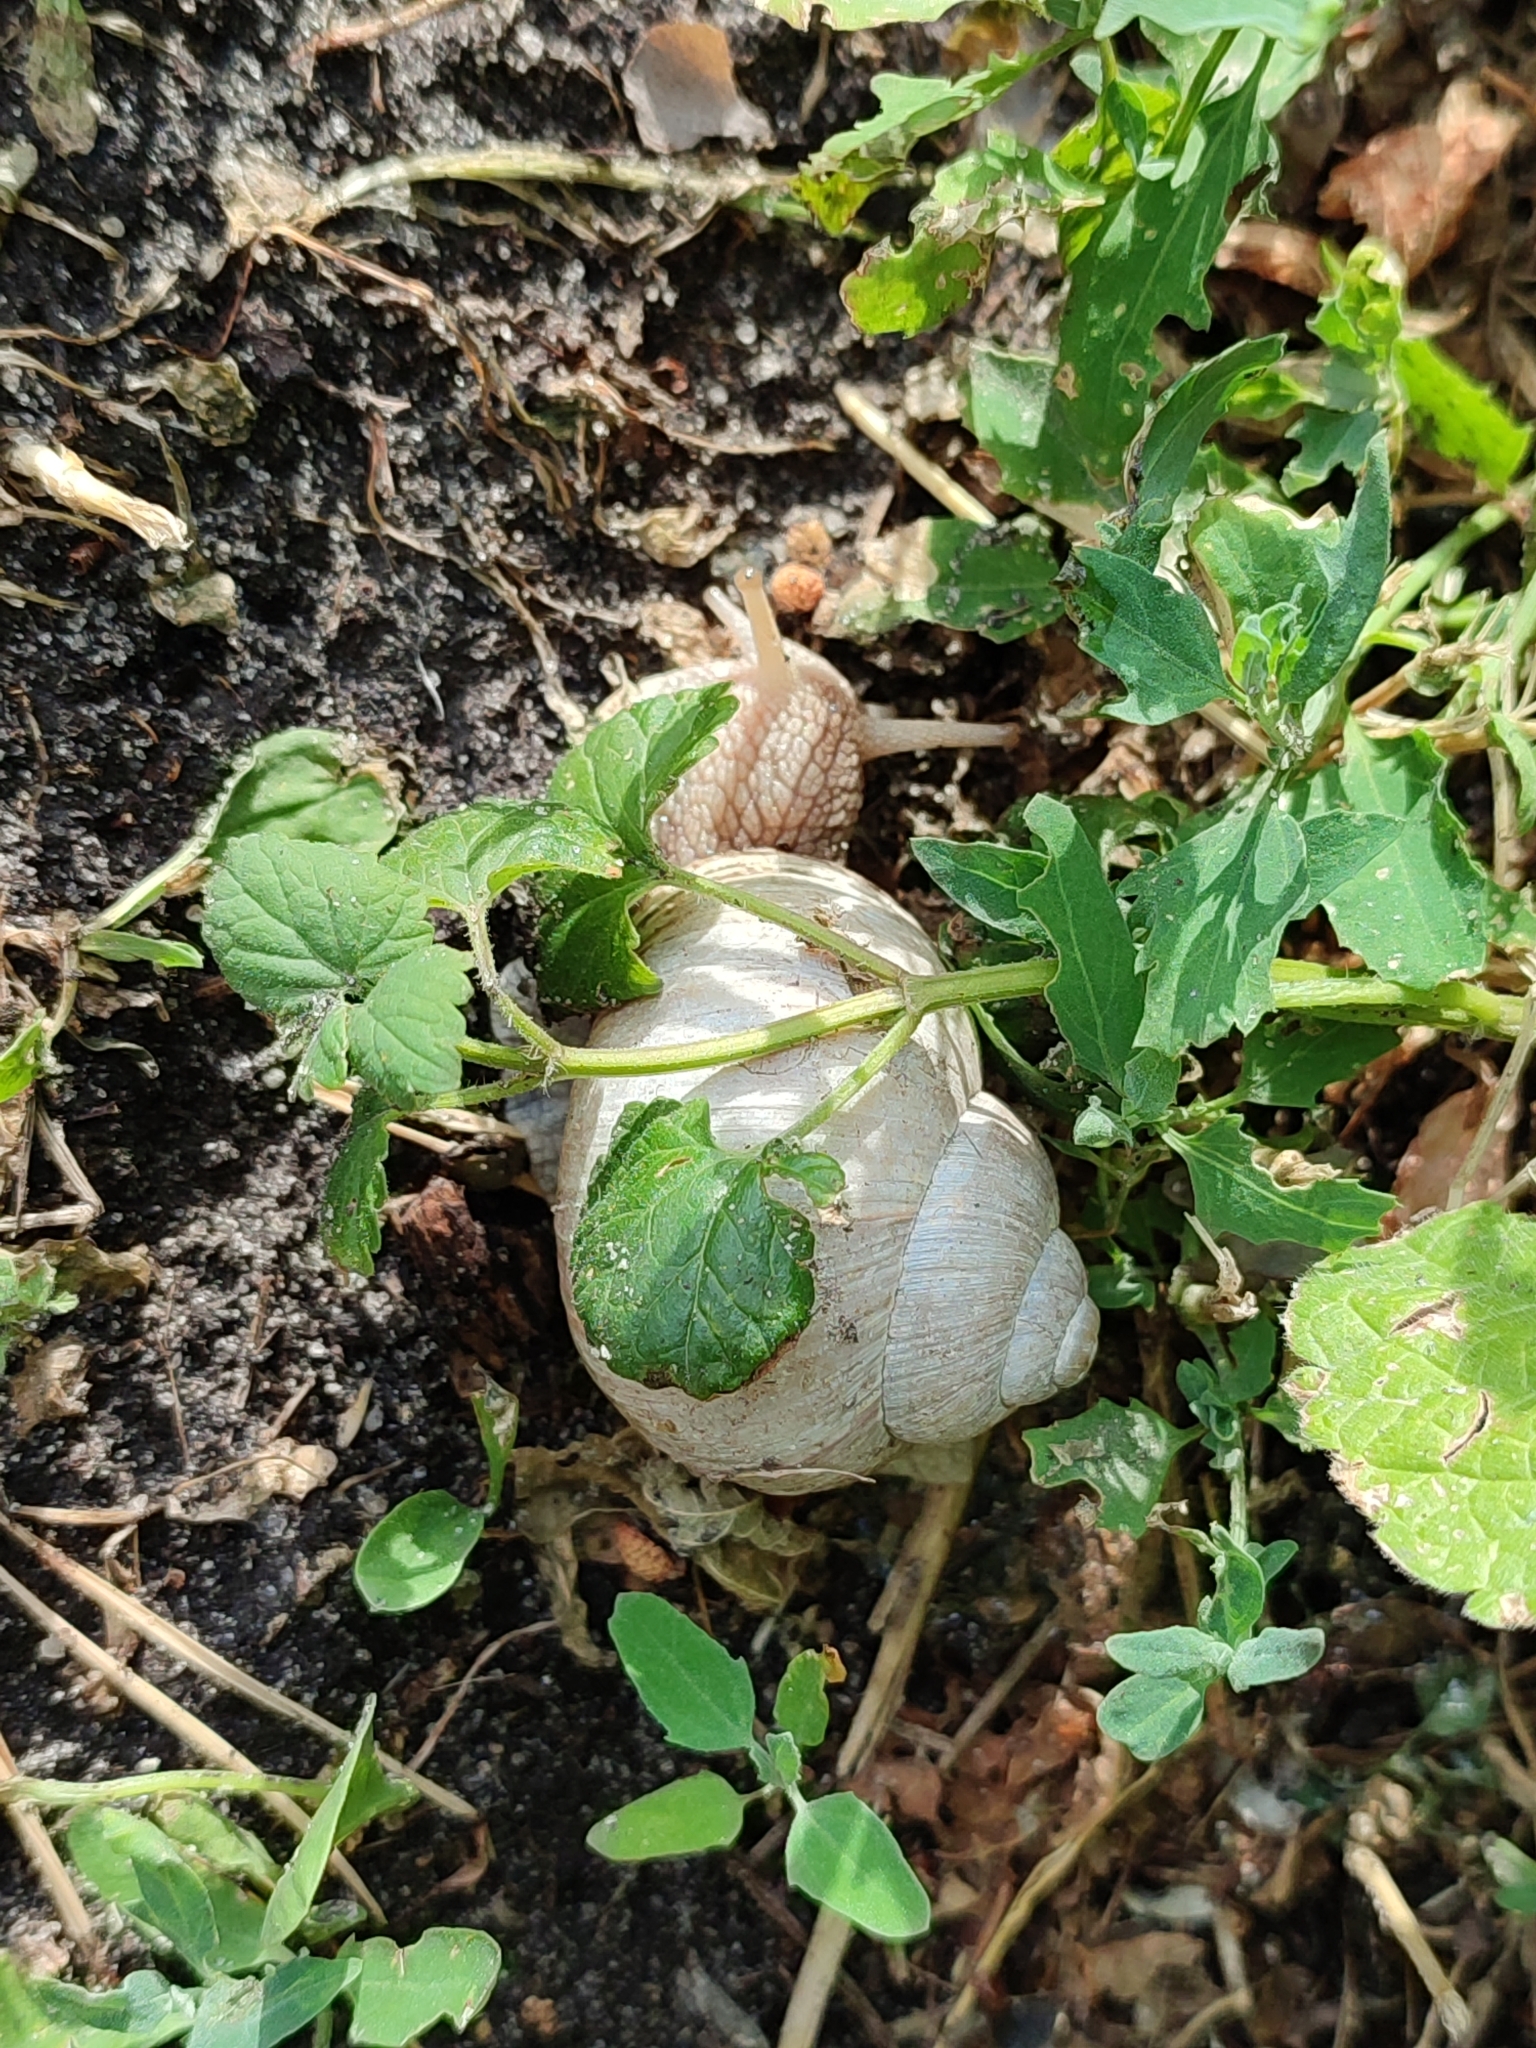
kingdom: Animalia
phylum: Mollusca
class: Gastropoda
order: Stylommatophora
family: Helicidae
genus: Helix
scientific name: Helix pomatia
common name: Roman snail
